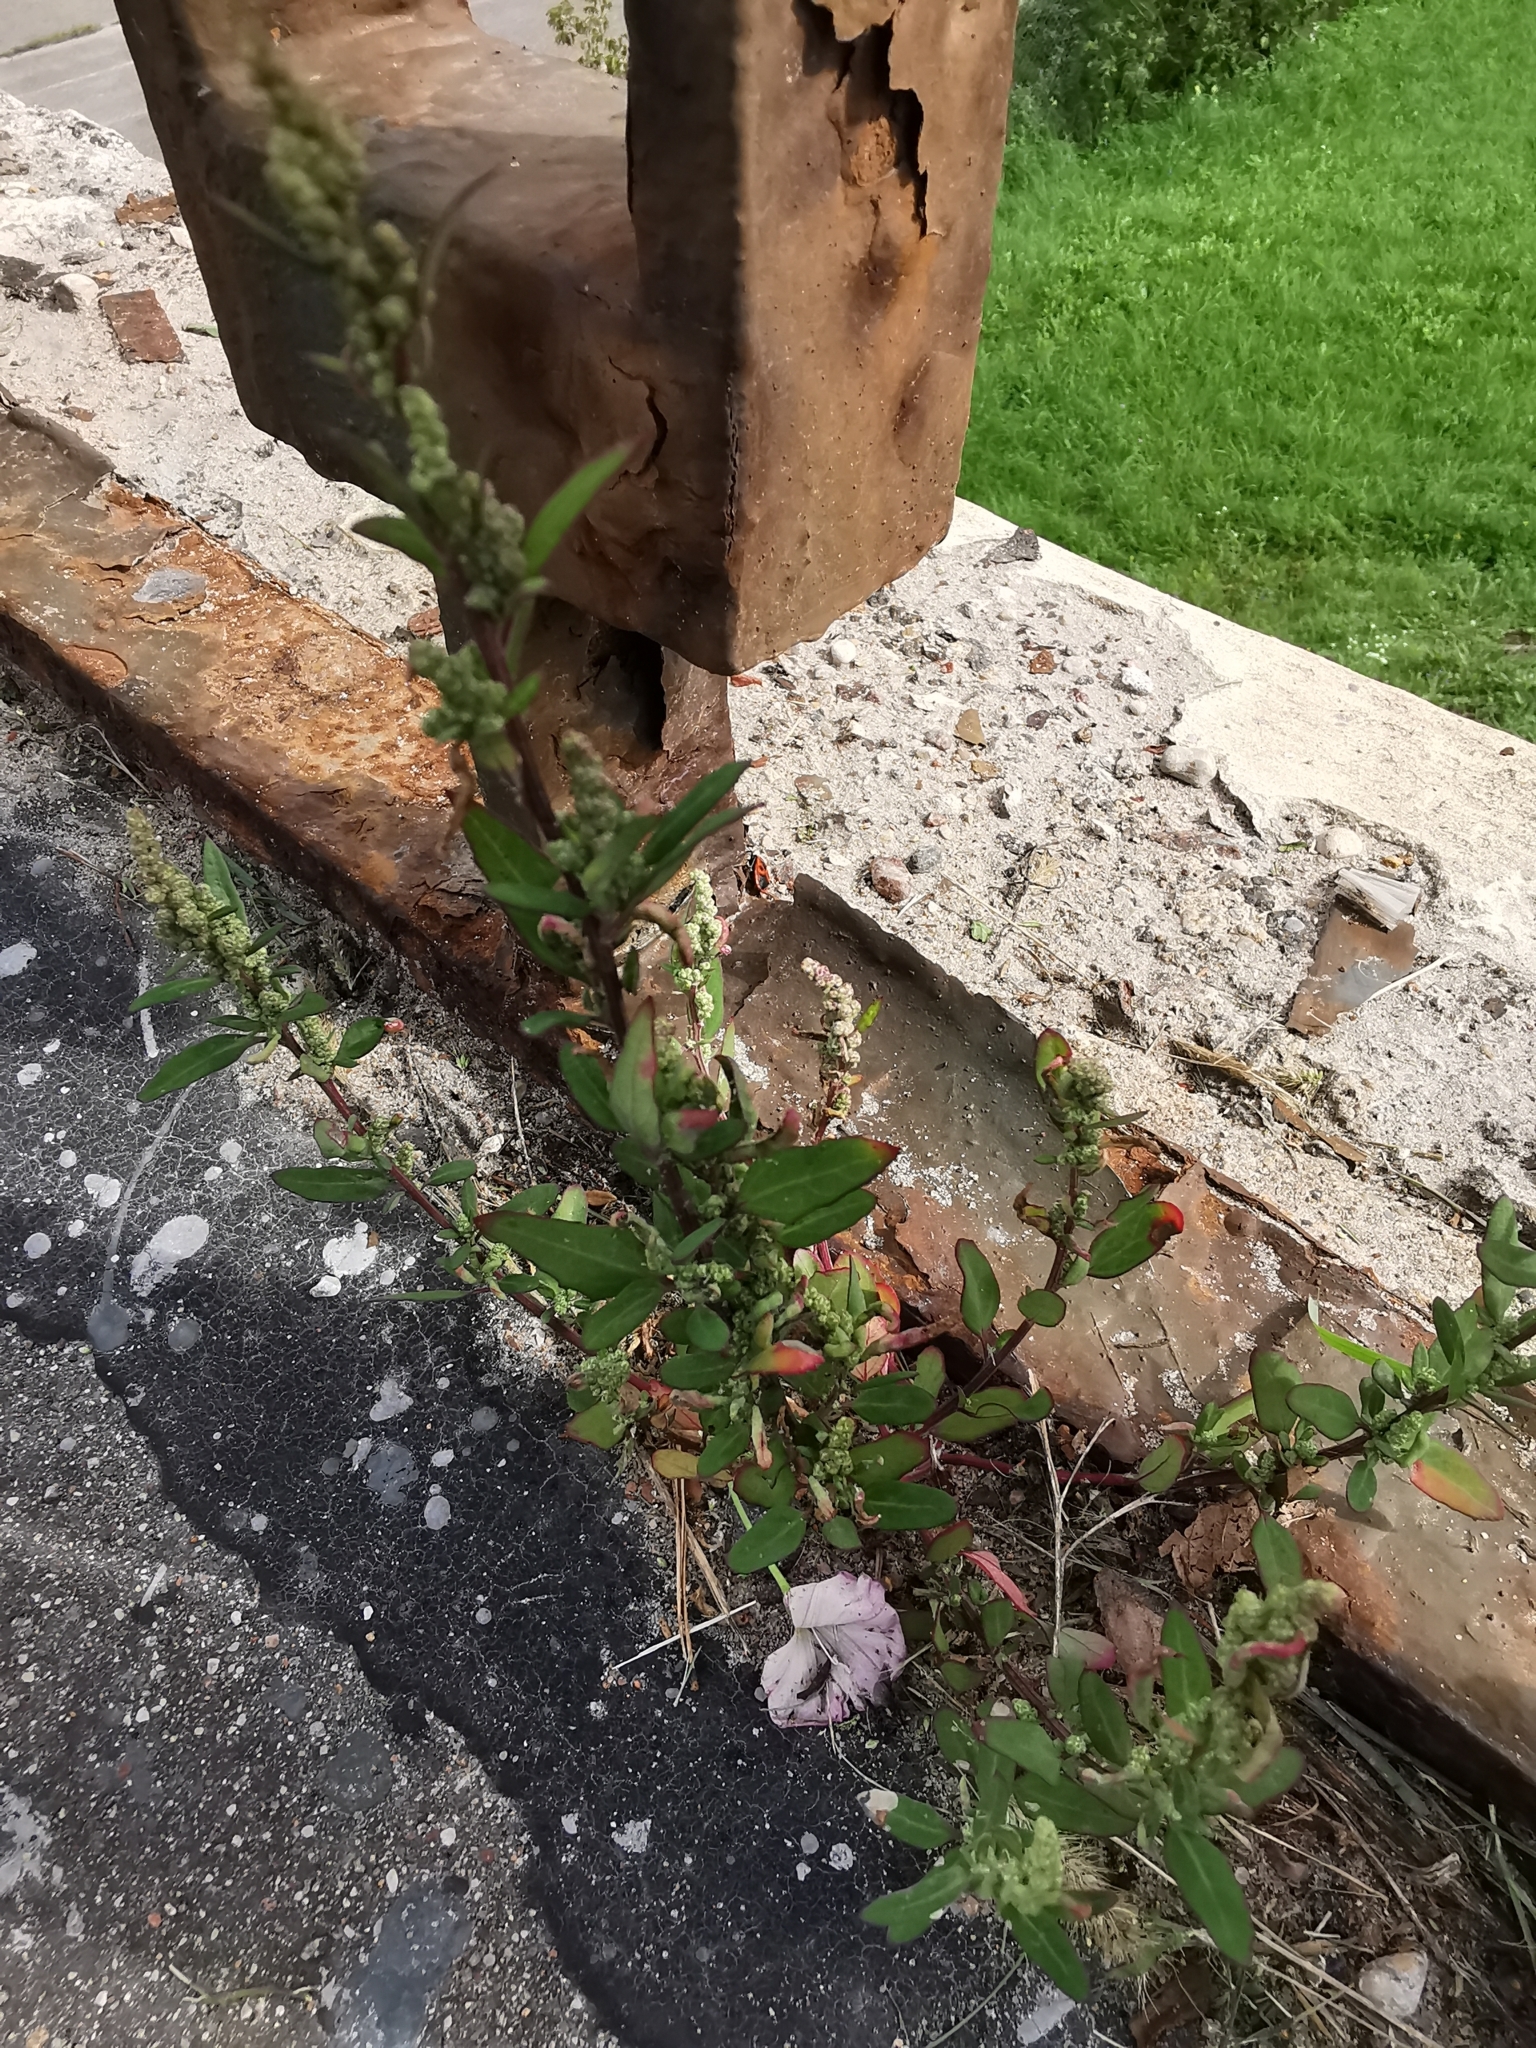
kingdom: Plantae
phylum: Tracheophyta
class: Magnoliopsida
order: Caryophyllales
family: Amaranthaceae
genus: Chenopodium
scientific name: Chenopodium betaceum
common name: Striped goosefoot
